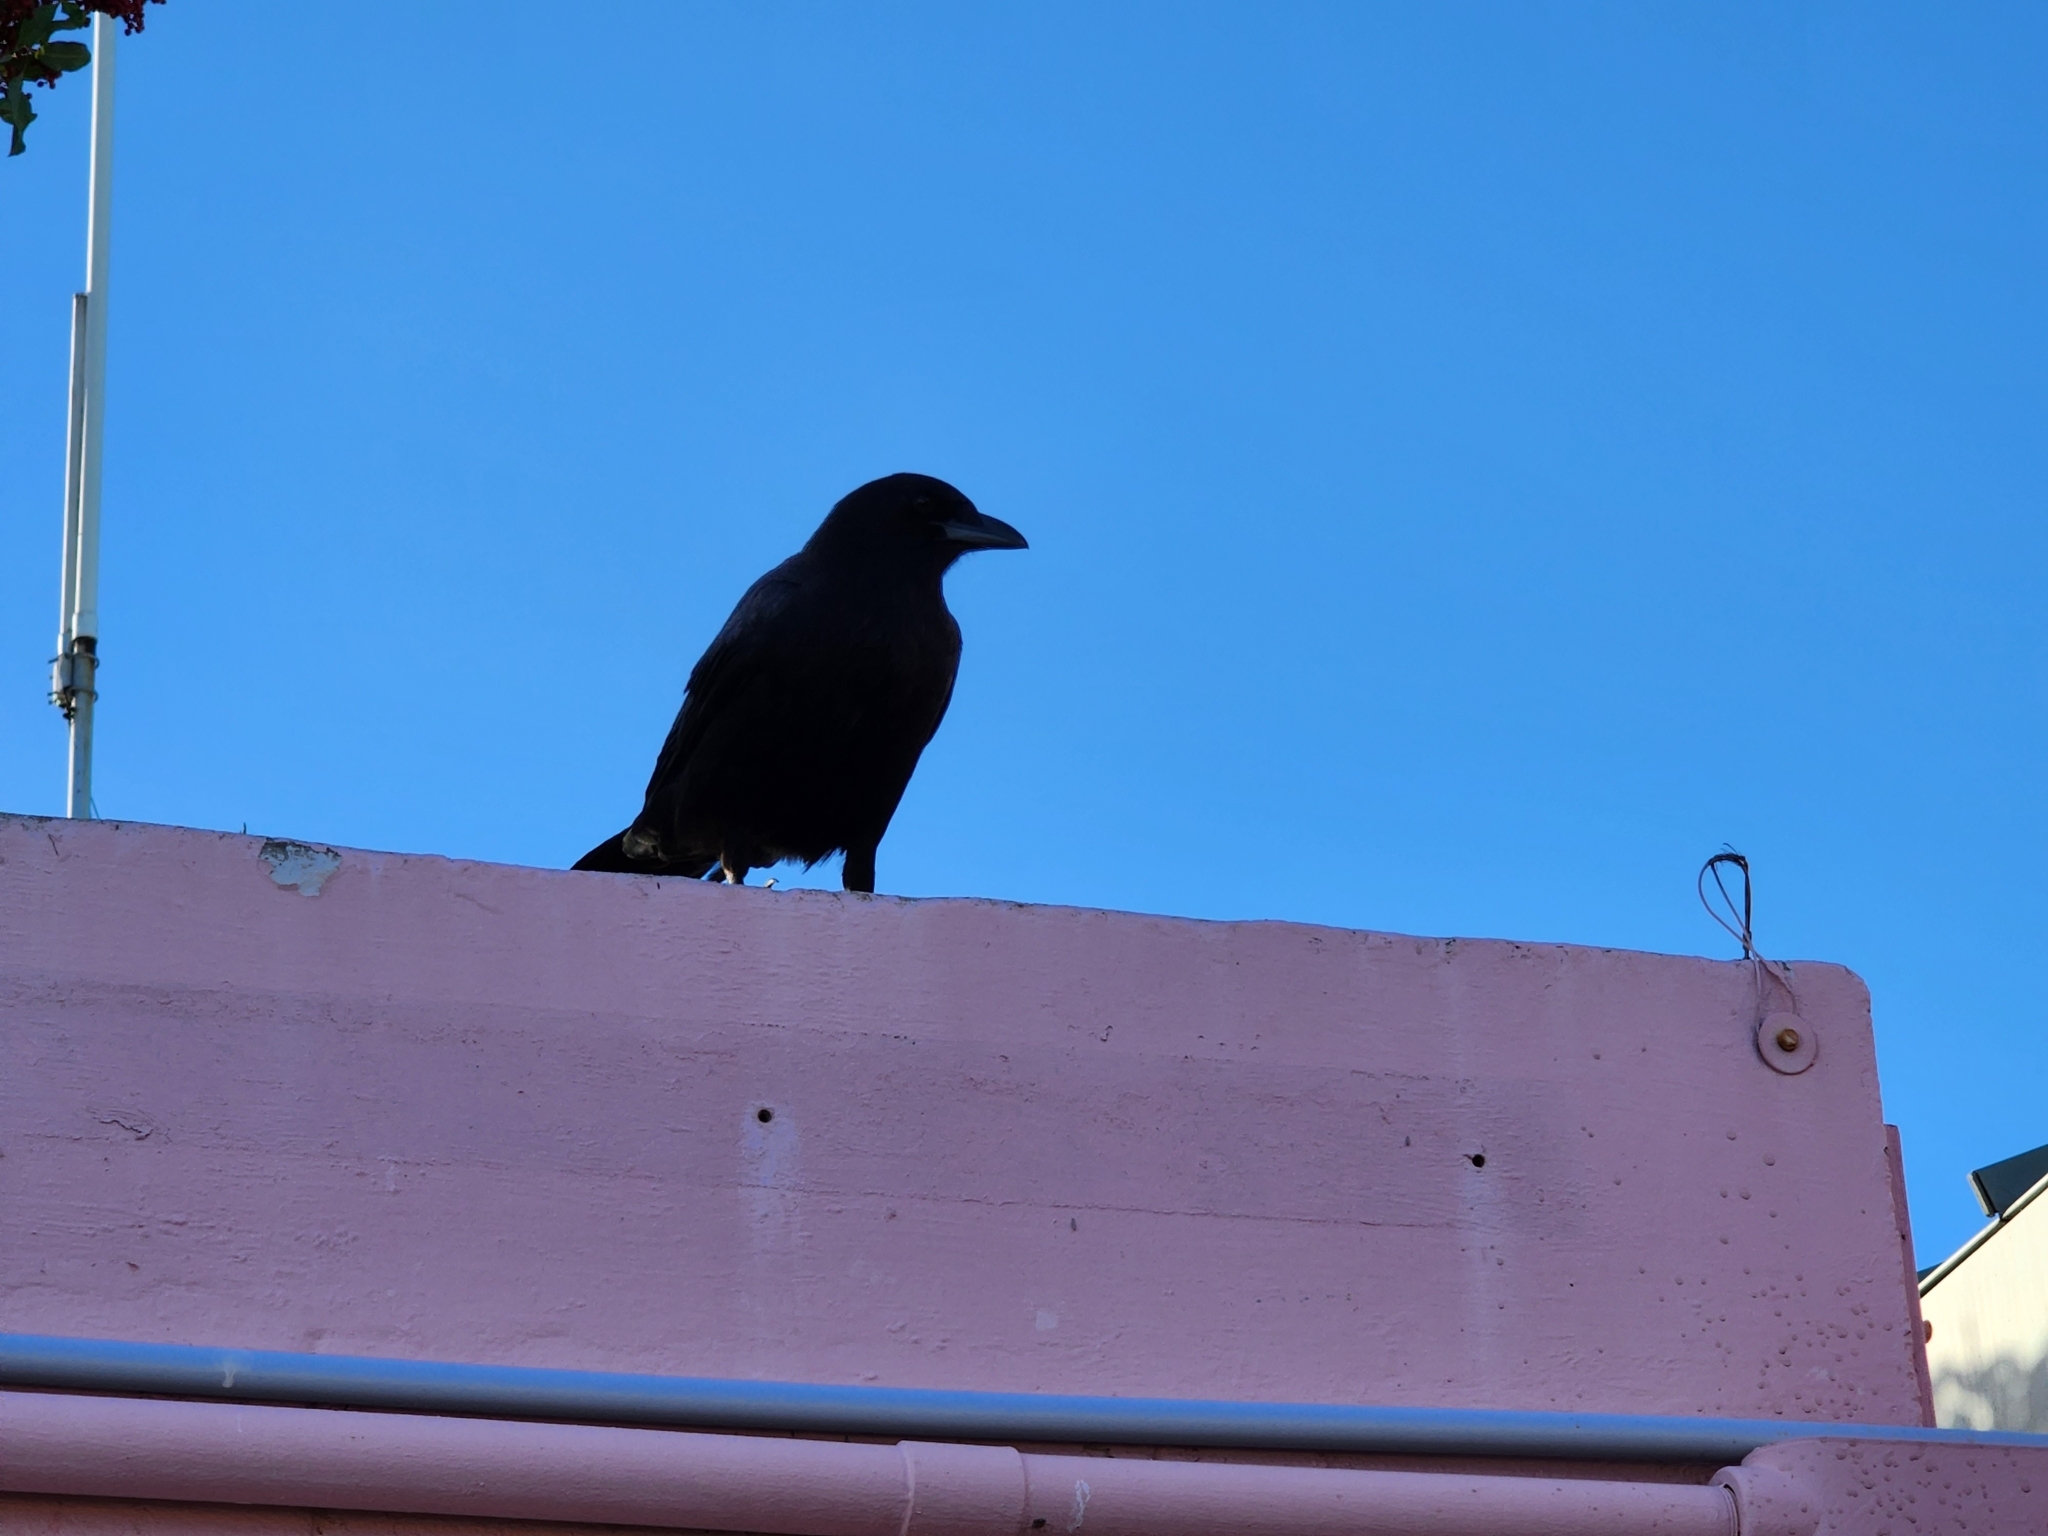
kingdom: Animalia
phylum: Chordata
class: Aves
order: Passeriformes
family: Corvidae
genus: Corvus
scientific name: Corvus brachyrhynchos
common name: American crow
